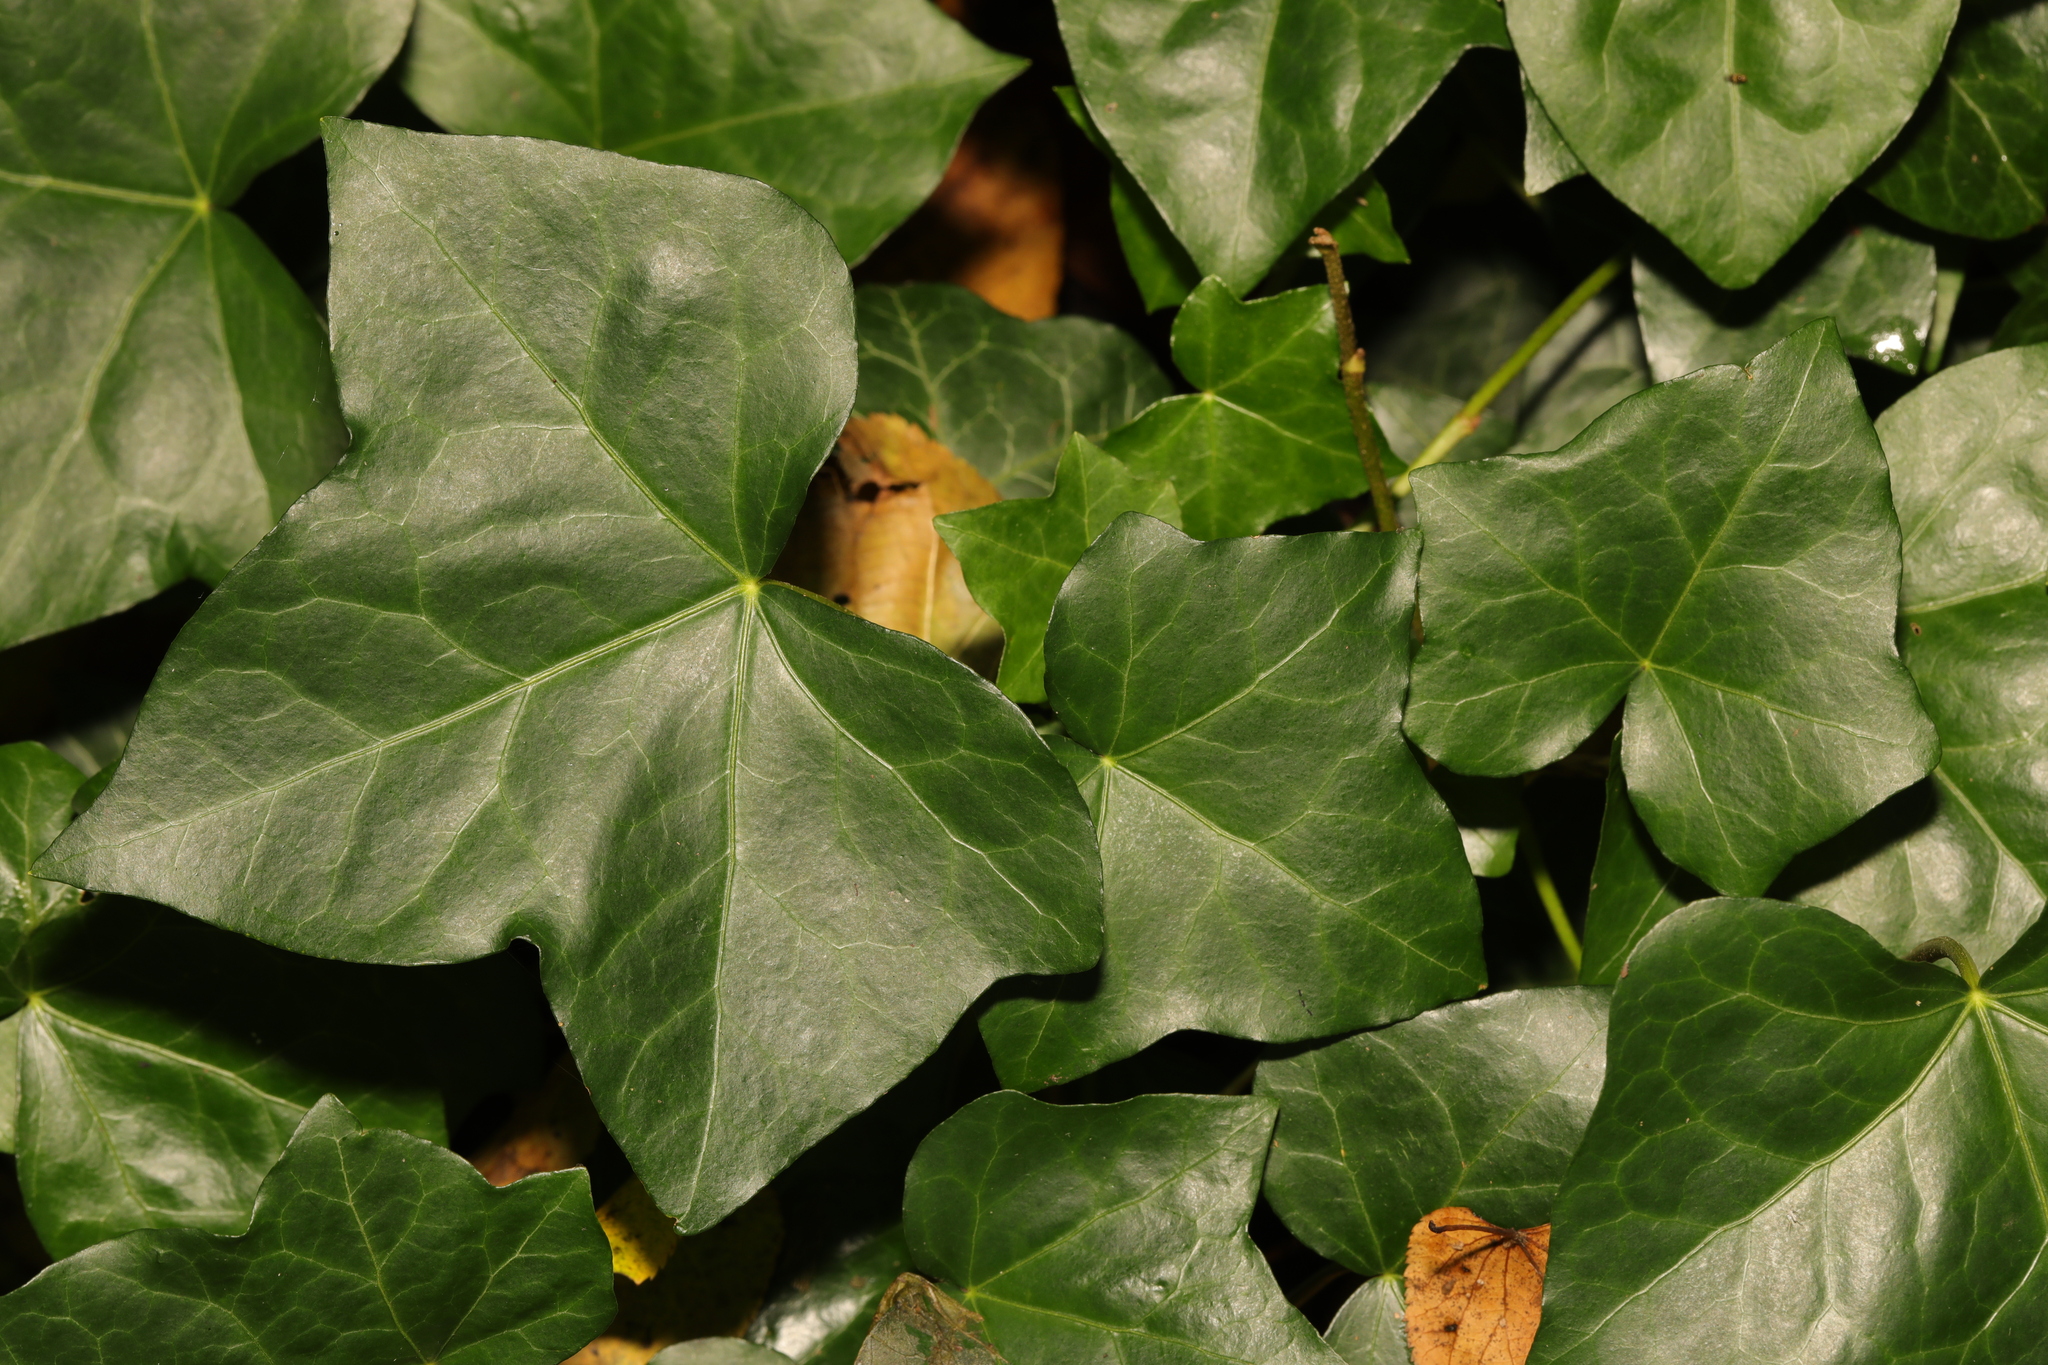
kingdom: Plantae
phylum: Tracheophyta
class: Magnoliopsida
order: Apiales
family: Araliaceae
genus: Hedera
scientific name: Hedera helix
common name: Ivy
